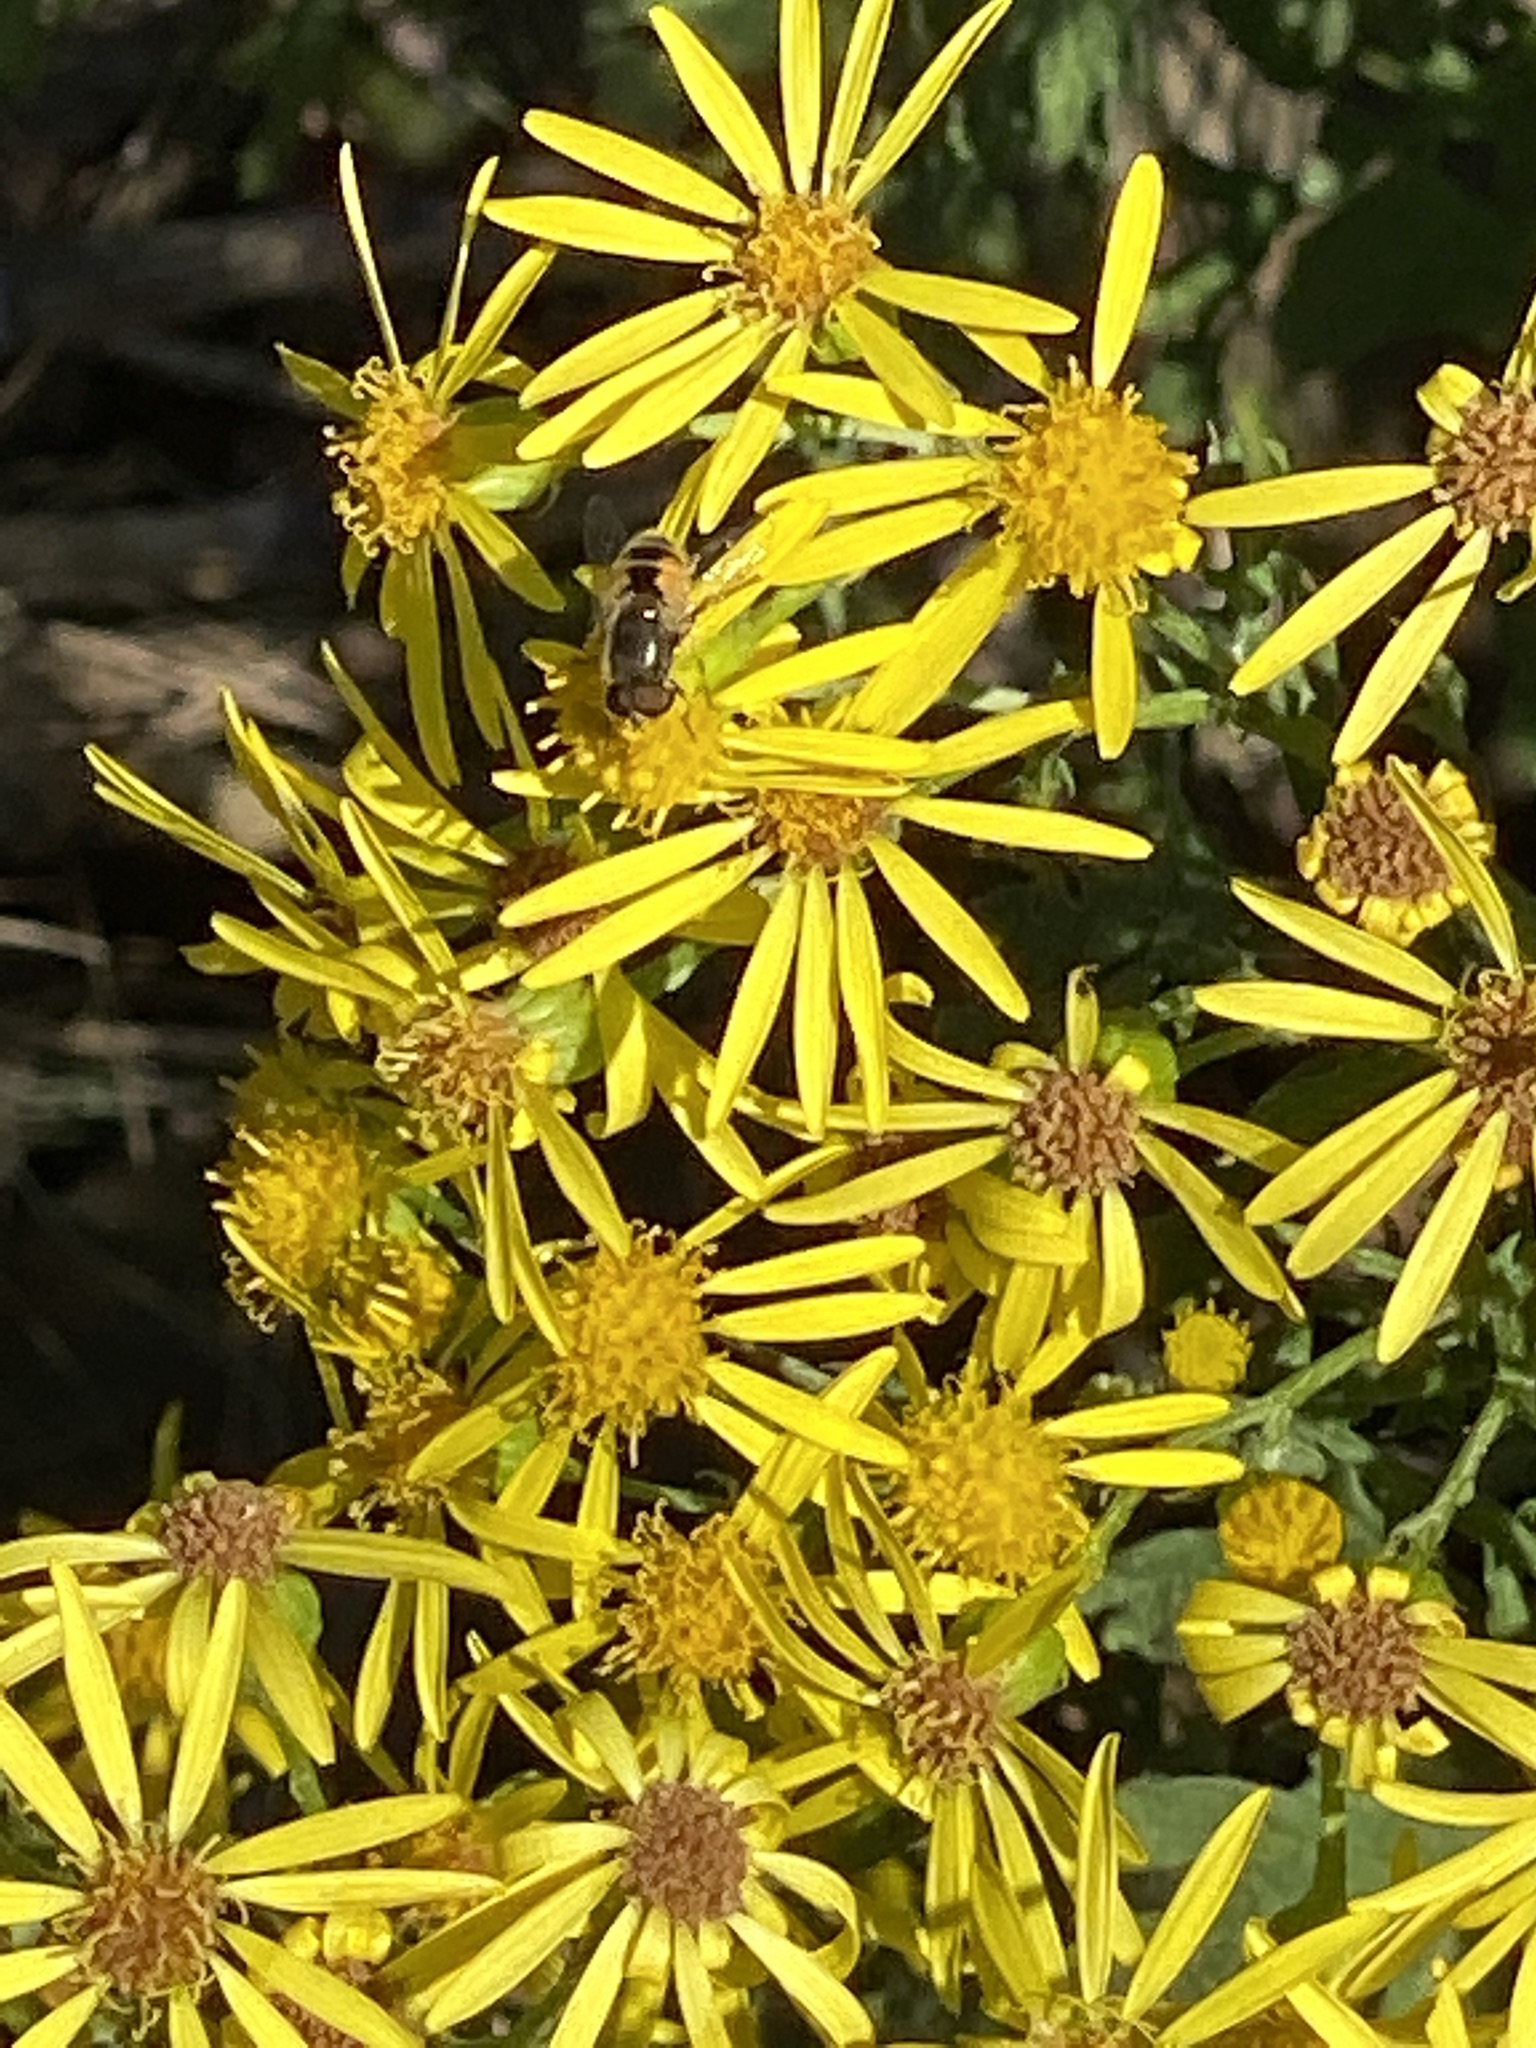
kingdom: Animalia
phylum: Arthropoda
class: Insecta
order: Diptera
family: Syrphidae
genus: Eristalis
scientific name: Eristalis arbustorum
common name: Hover fly
